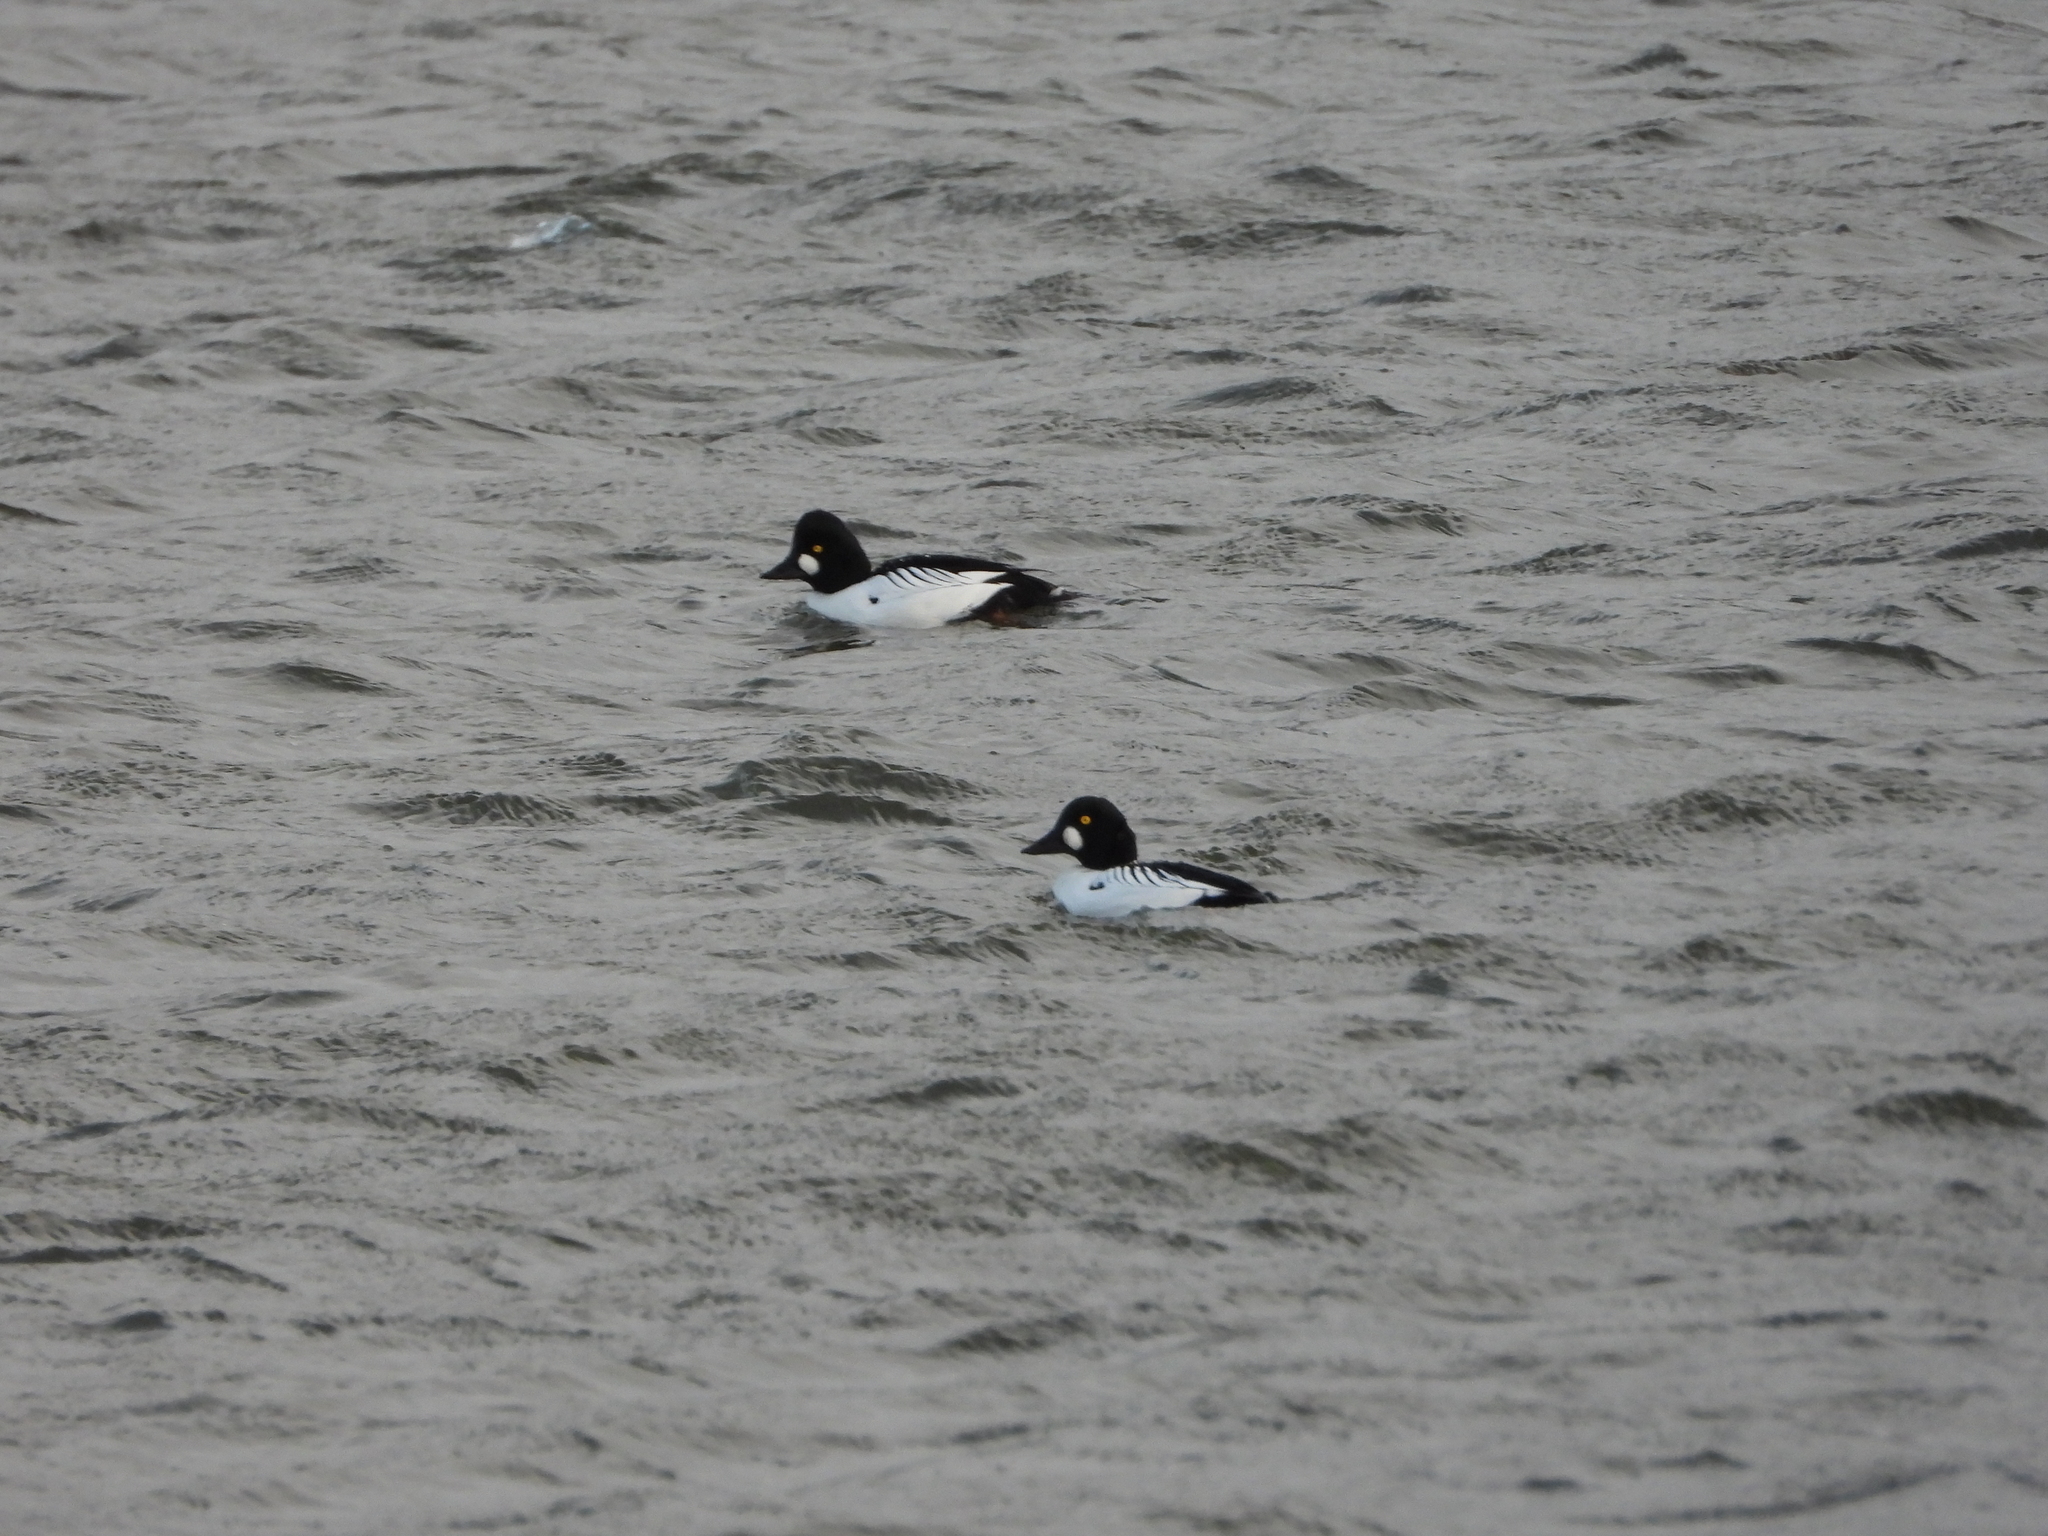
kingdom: Animalia
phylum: Chordata
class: Aves
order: Anseriformes
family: Anatidae
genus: Bucephala
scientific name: Bucephala clangula
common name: Common goldeneye
